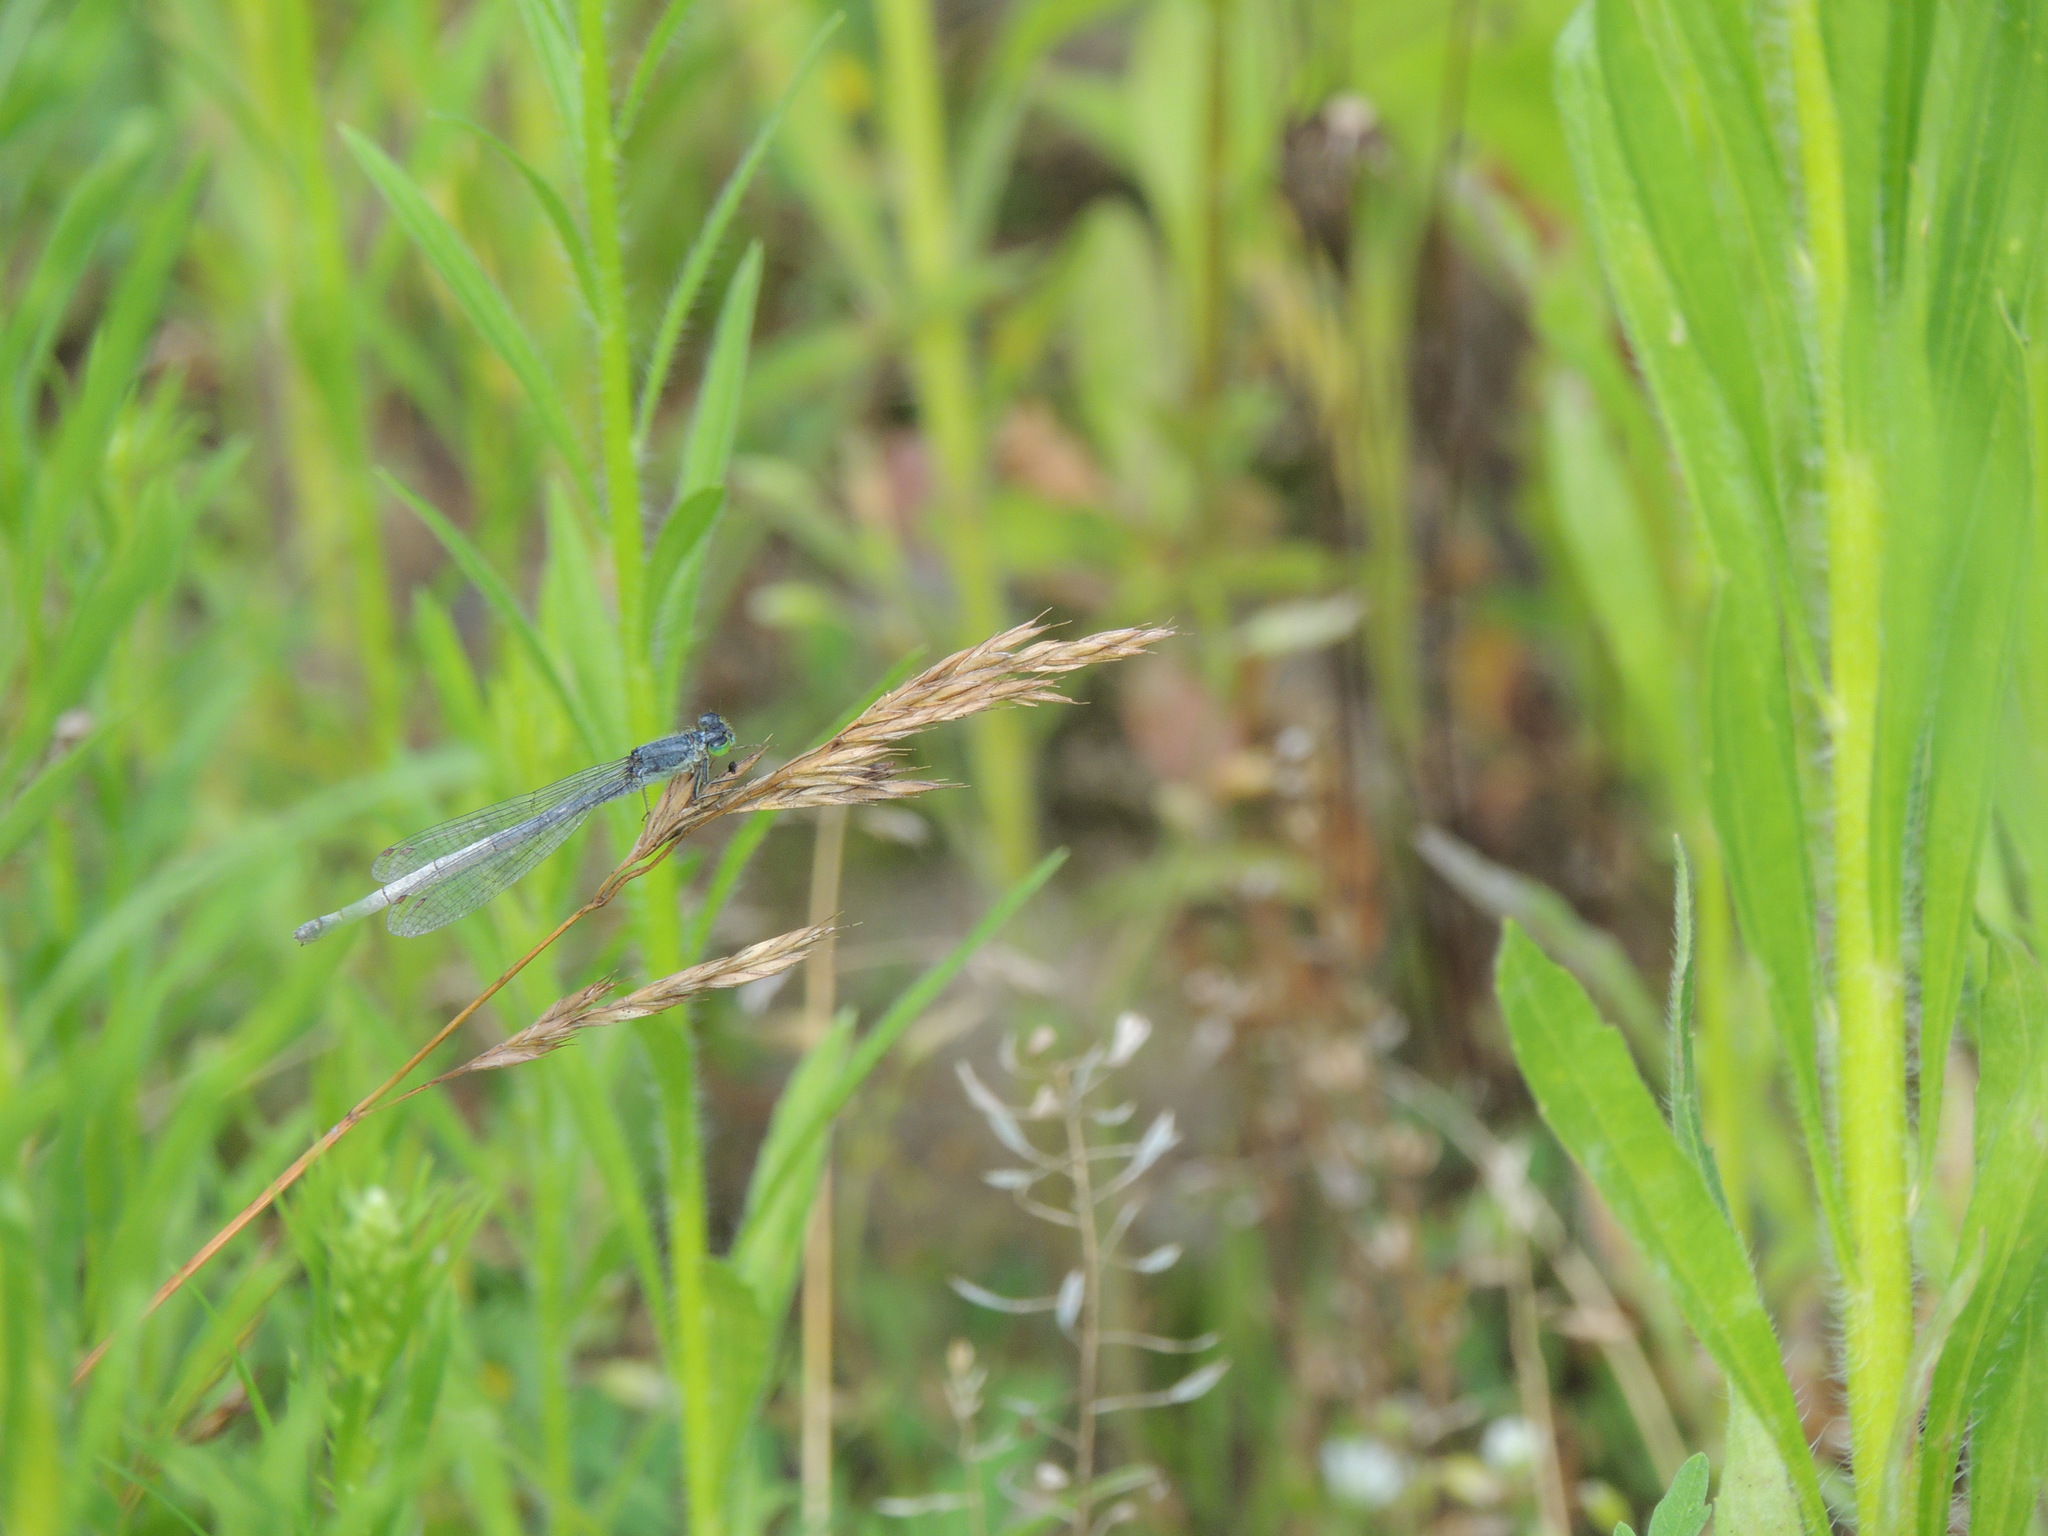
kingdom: Animalia
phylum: Arthropoda
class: Insecta
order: Odonata
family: Coenagrionidae
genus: Ischnura
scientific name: Ischnura verticalis
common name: Eastern forktail
